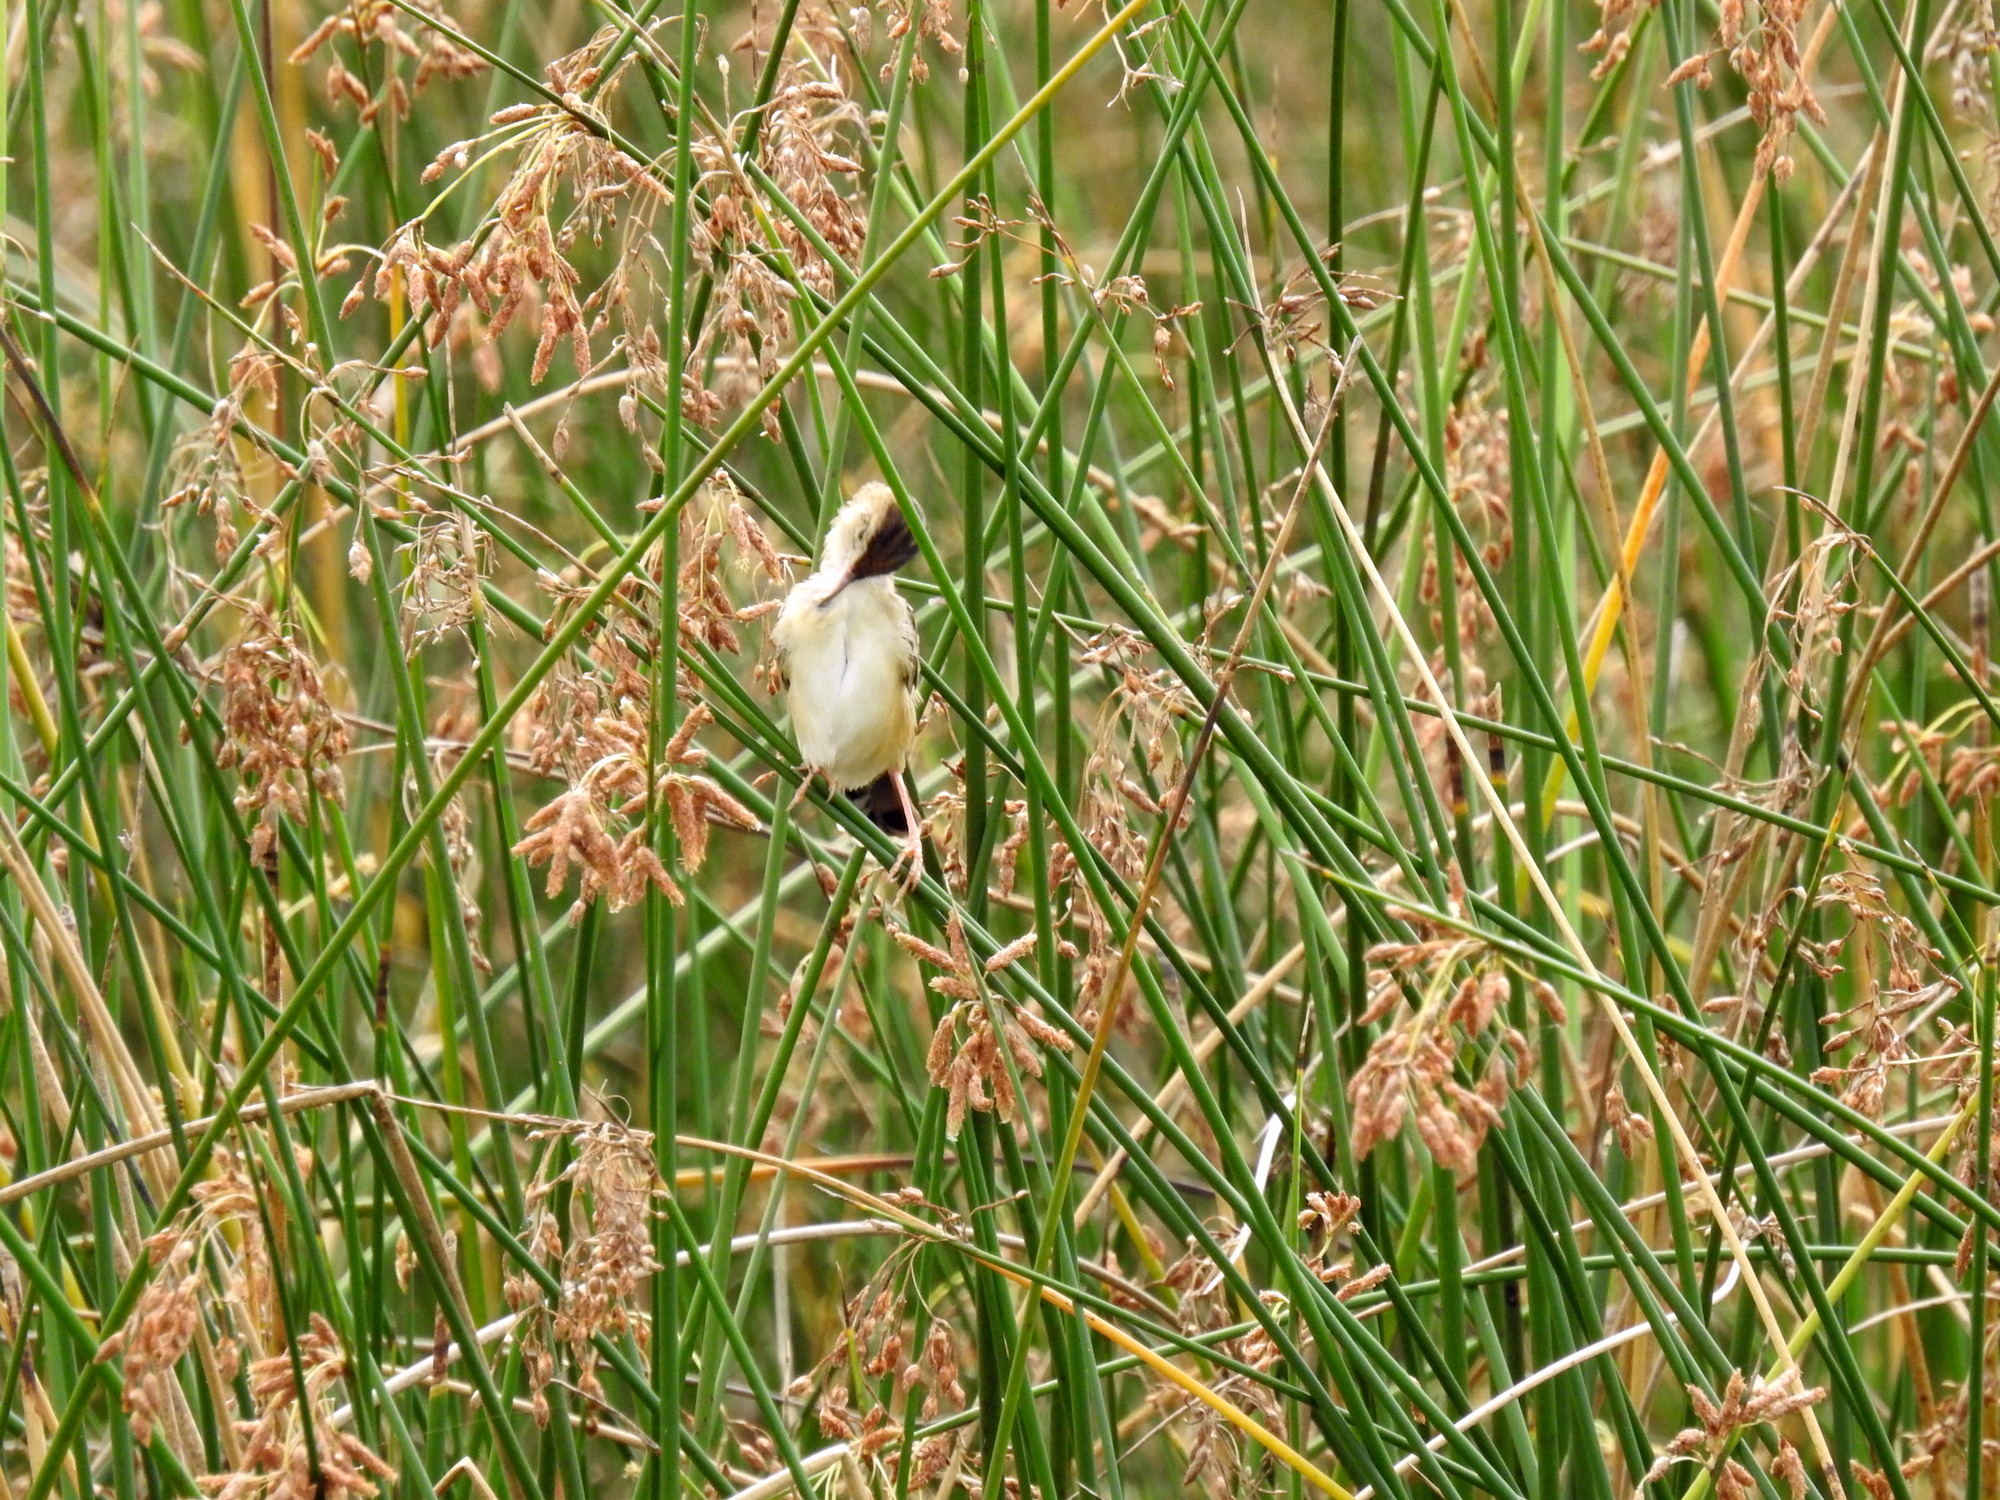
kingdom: Animalia
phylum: Chordata
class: Aves
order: Passeriformes
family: Cisticolidae
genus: Cisticola
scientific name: Cisticola juncidis
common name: Zitting cisticola
